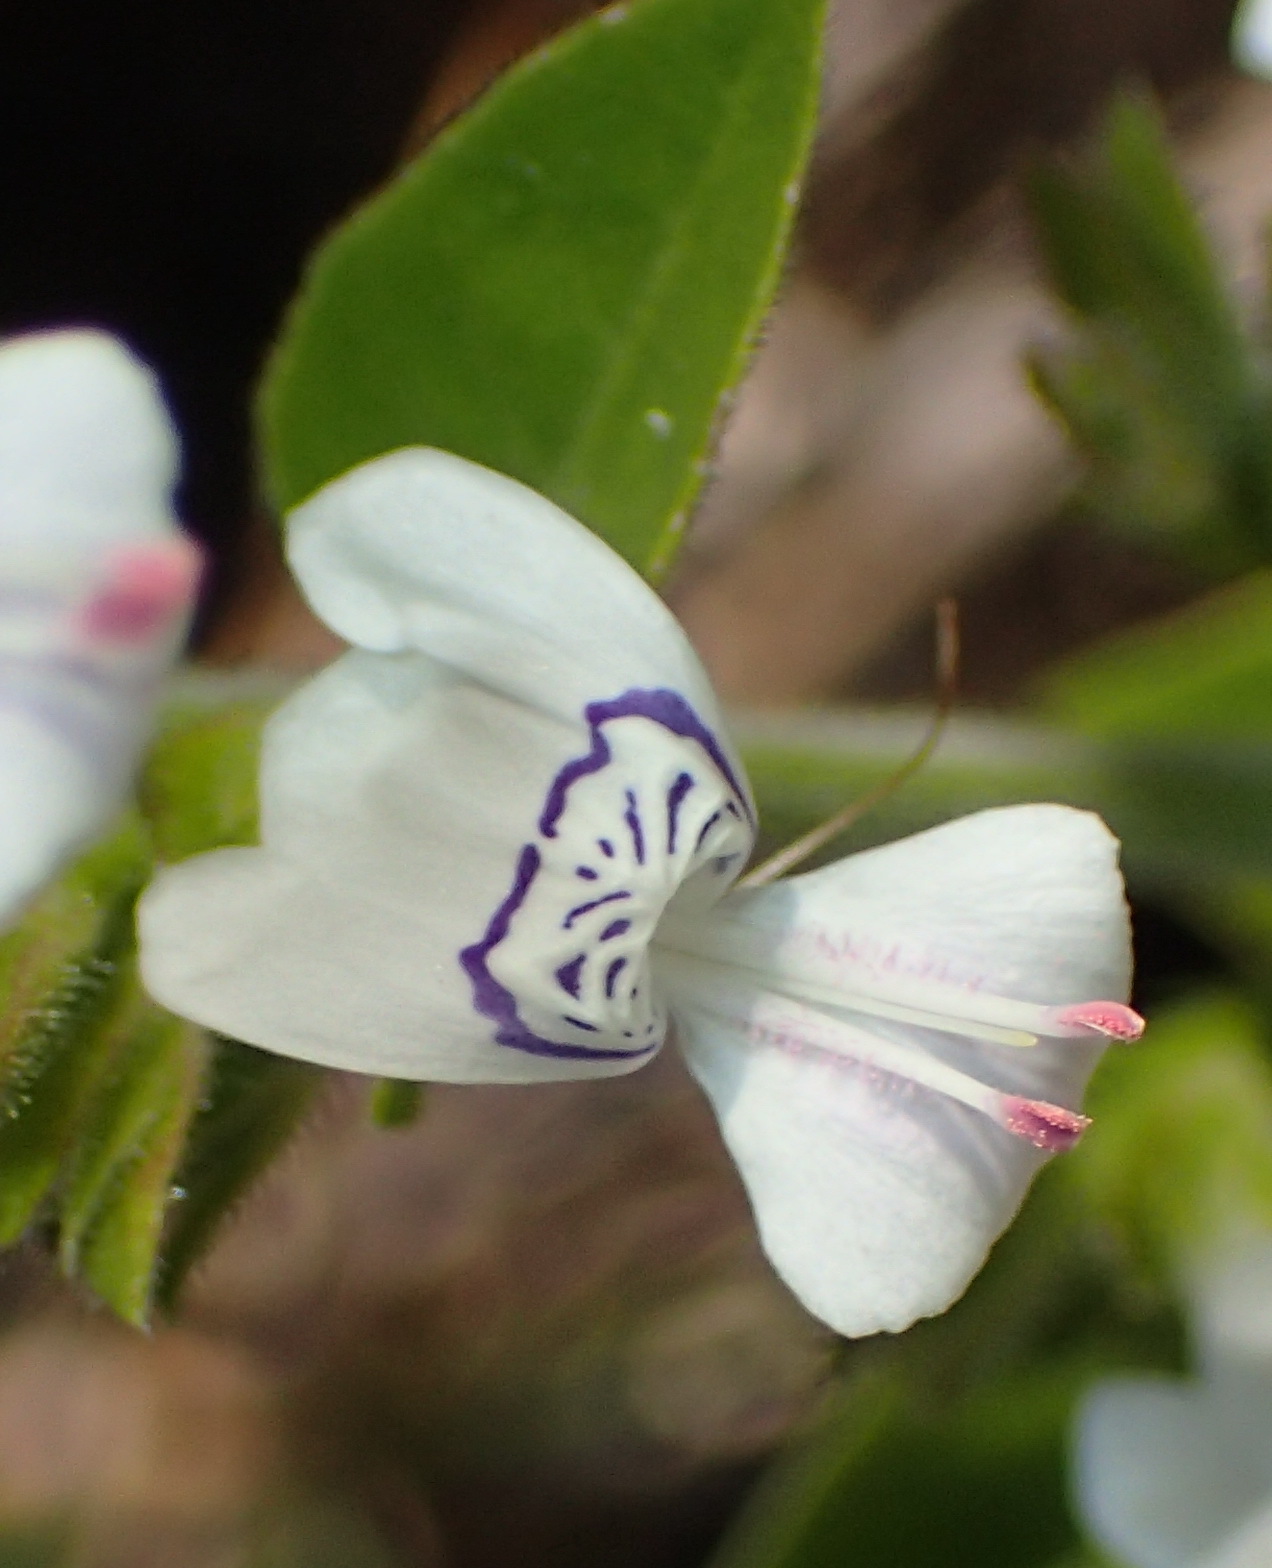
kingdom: Plantae
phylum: Tracheophyta
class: Magnoliopsida
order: Lamiales
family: Acanthaceae
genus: Hypoestes
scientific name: Hypoestes forskaolii
